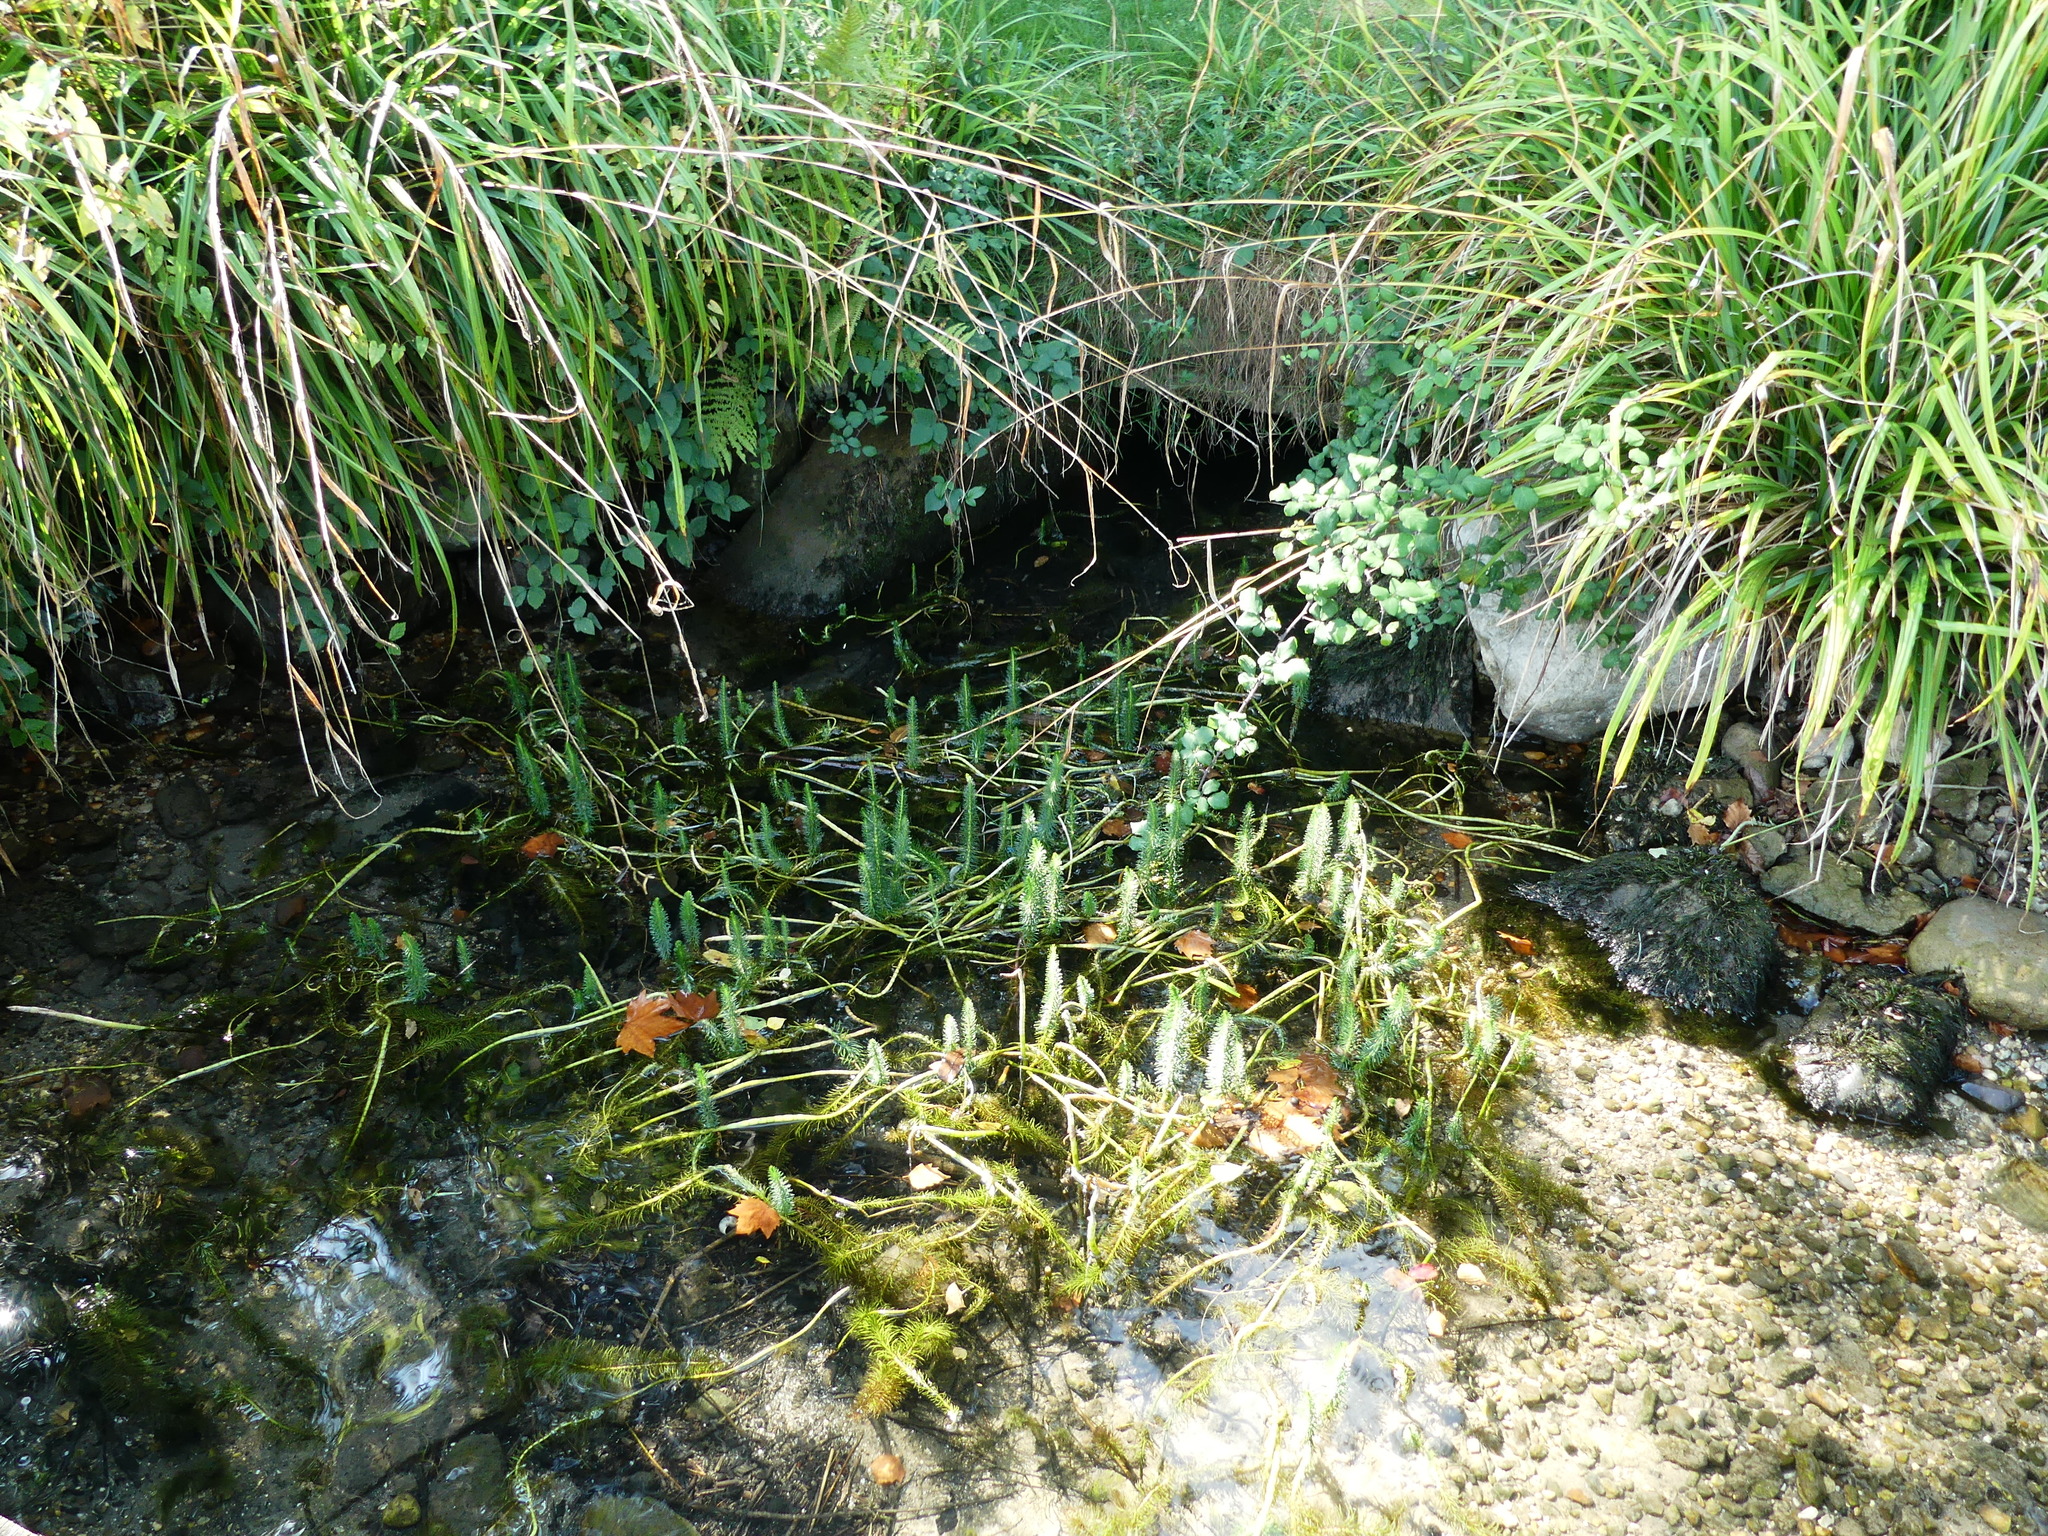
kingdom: Plantae
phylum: Tracheophyta
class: Magnoliopsida
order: Lamiales
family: Plantaginaceae
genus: Hippuris
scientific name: Hippuris vulgaris
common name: Mare's-tail
